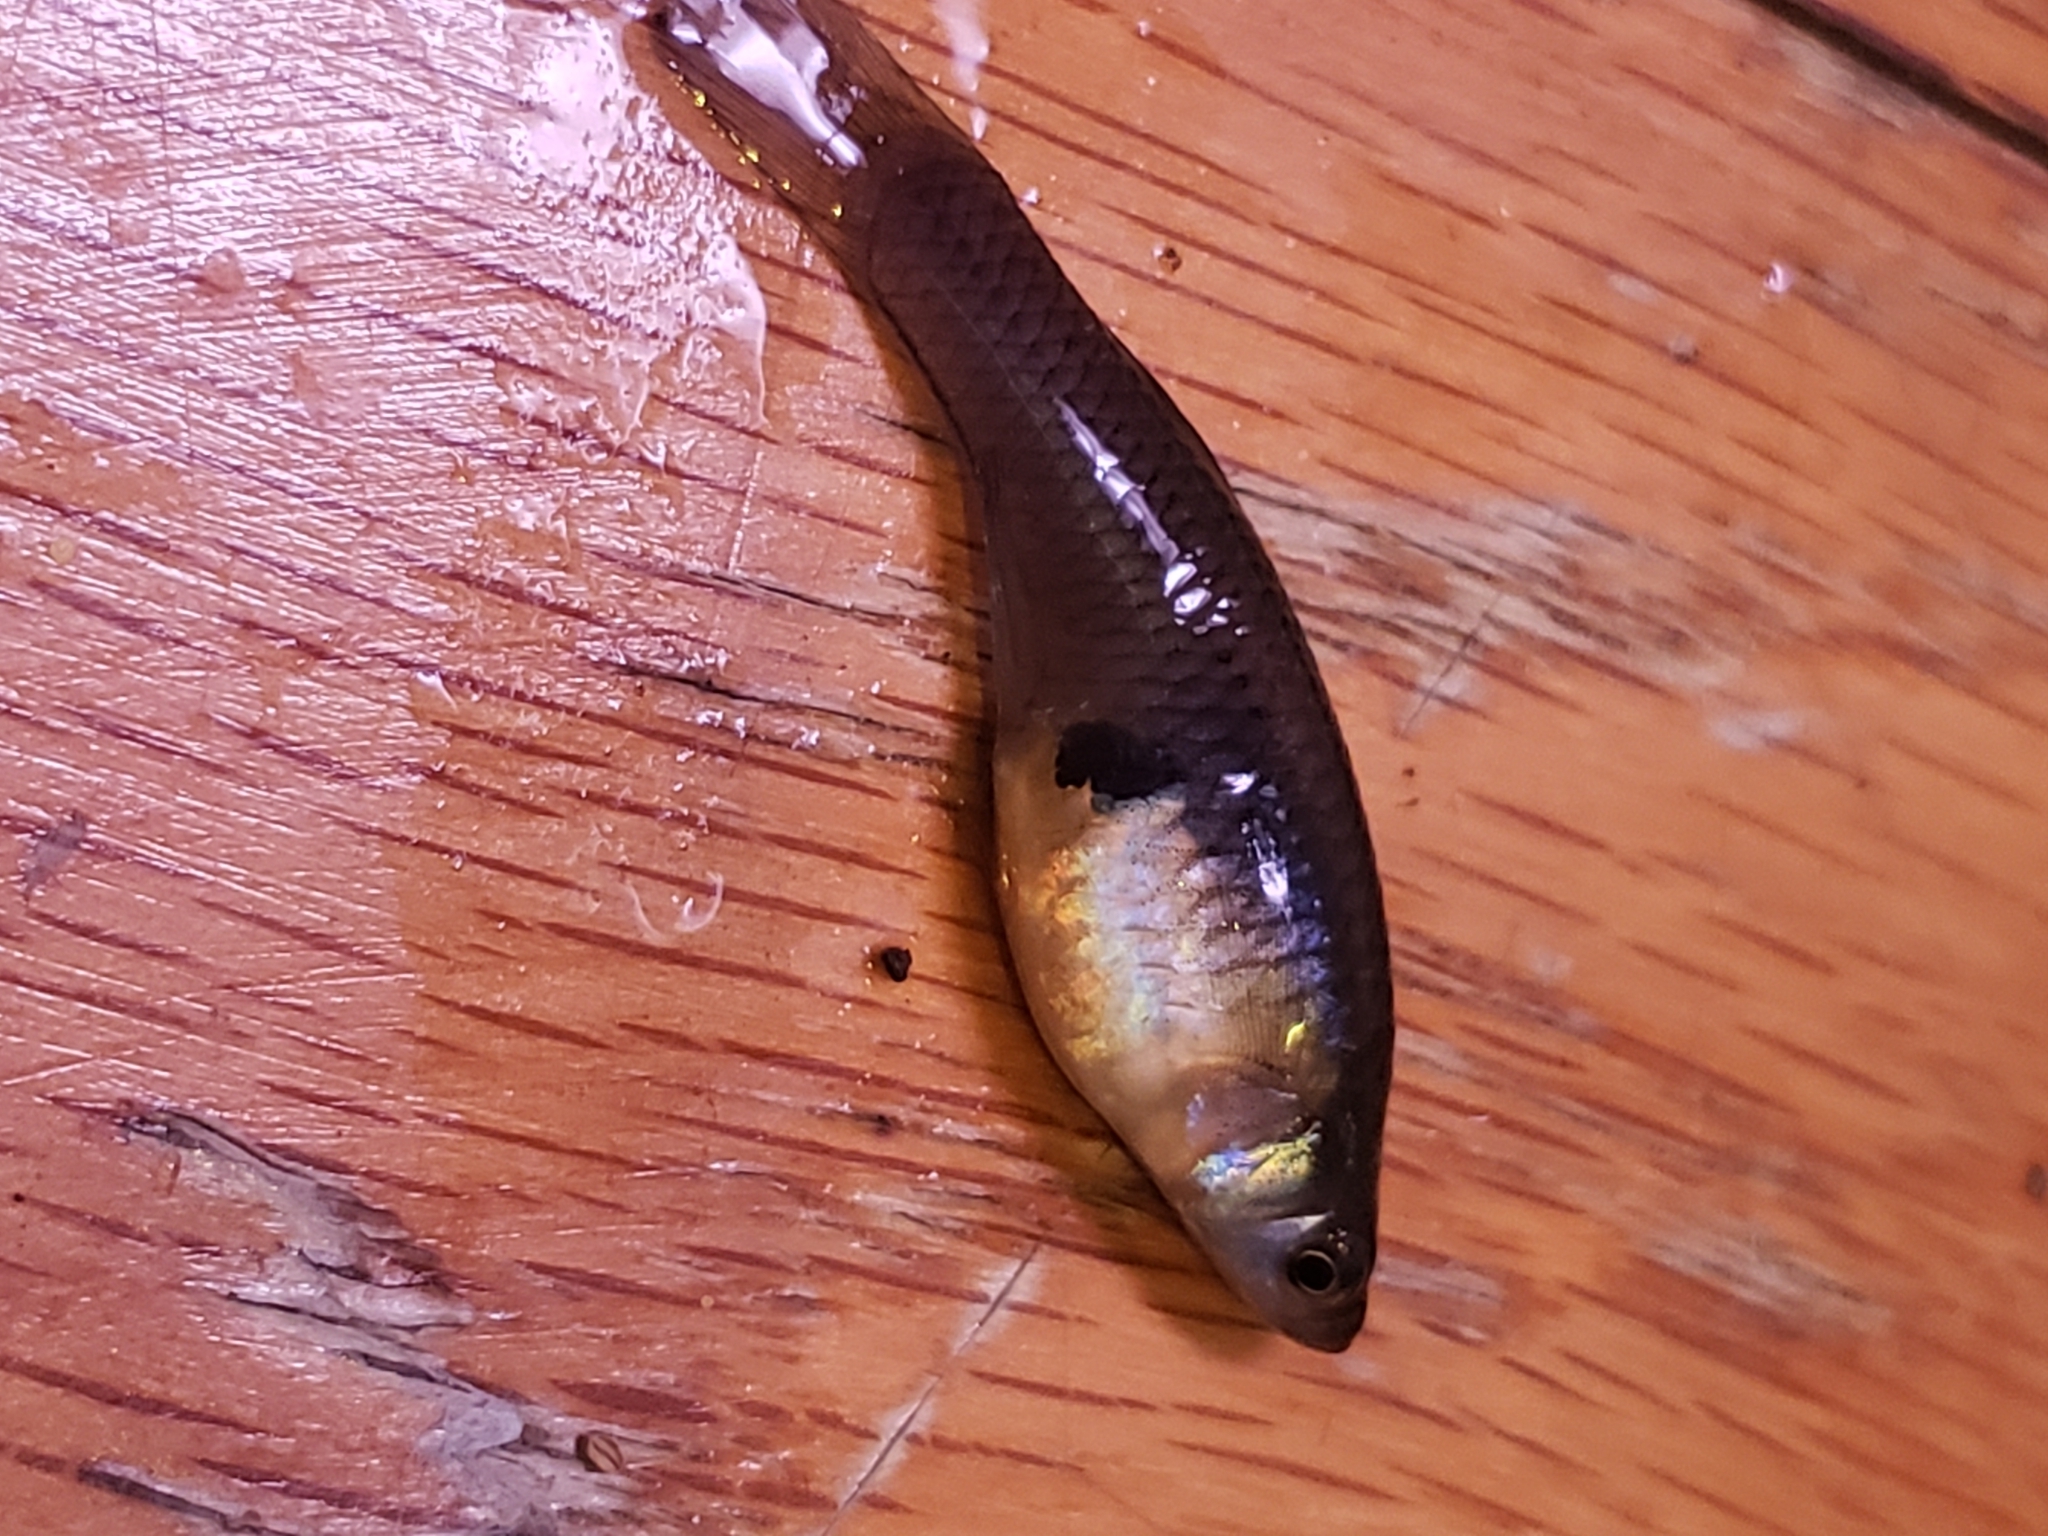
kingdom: Animalia
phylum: Chordata
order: Cyprinodontiformes
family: Poeciliidae
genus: Gambusia
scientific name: Gambusia affinis
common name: Mosquitofish
